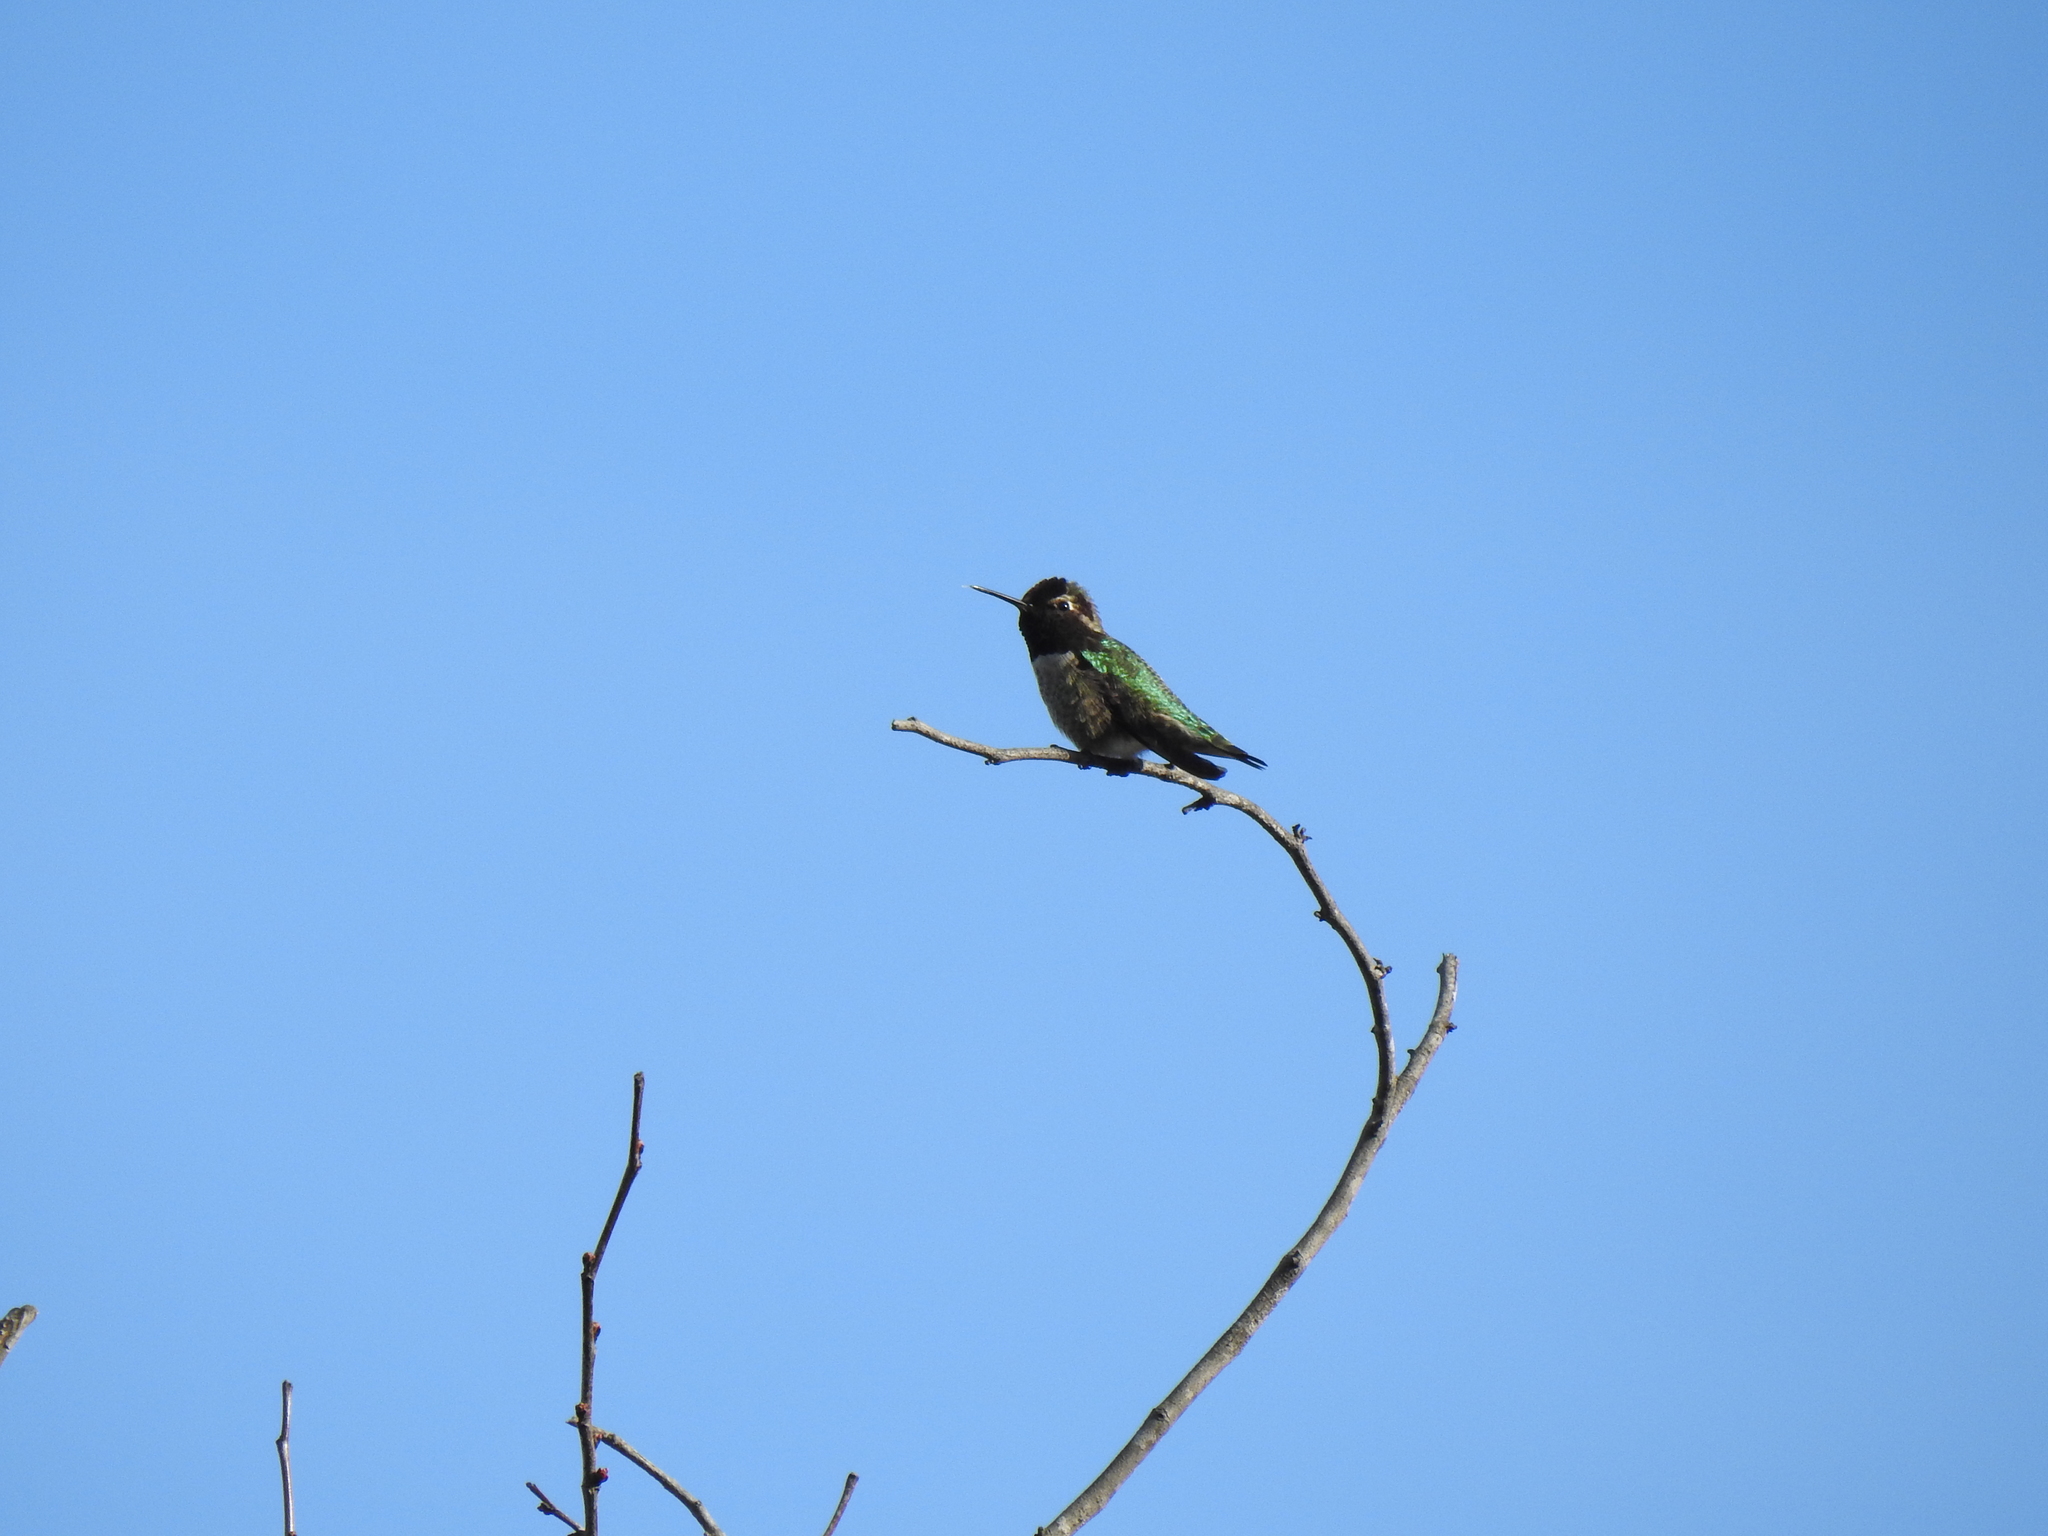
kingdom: Animalia
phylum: Chordata
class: Aves
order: Apodiformes
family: Trochilidae
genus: Calypte
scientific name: Calypte anna
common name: Anna's hummingbird
